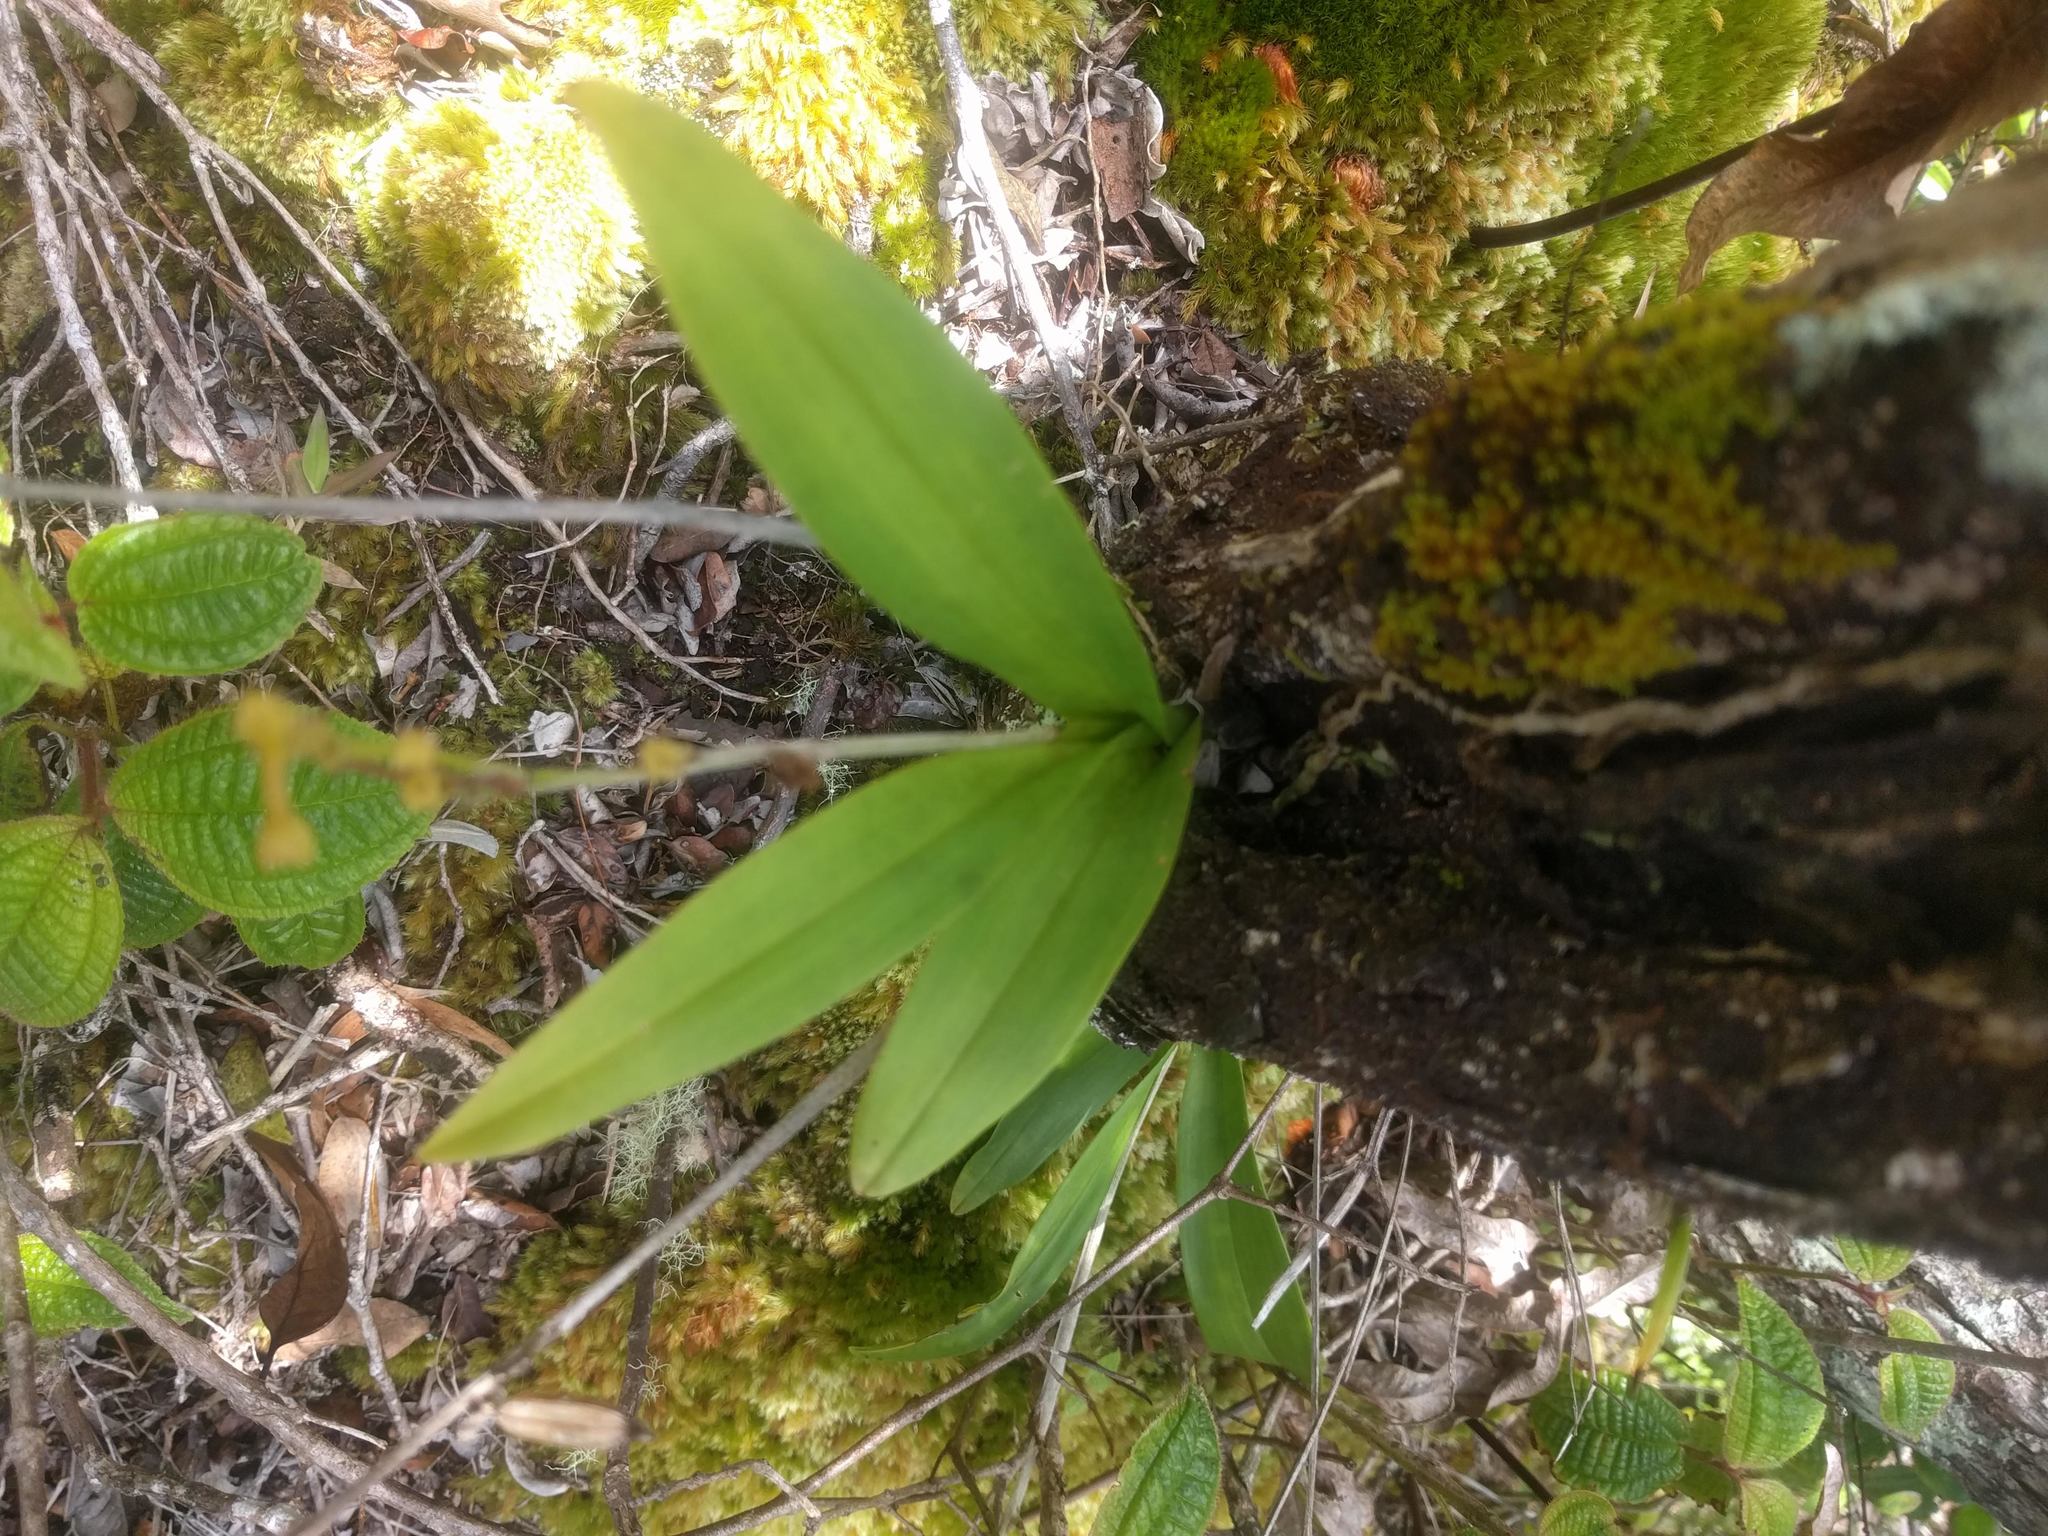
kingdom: Plantae
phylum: Tracheophyta
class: Liliopsida
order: Asparagales
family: Orchidaceae
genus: Polystachya
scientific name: Polystachya concreta
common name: Greater yellowspike orchid
